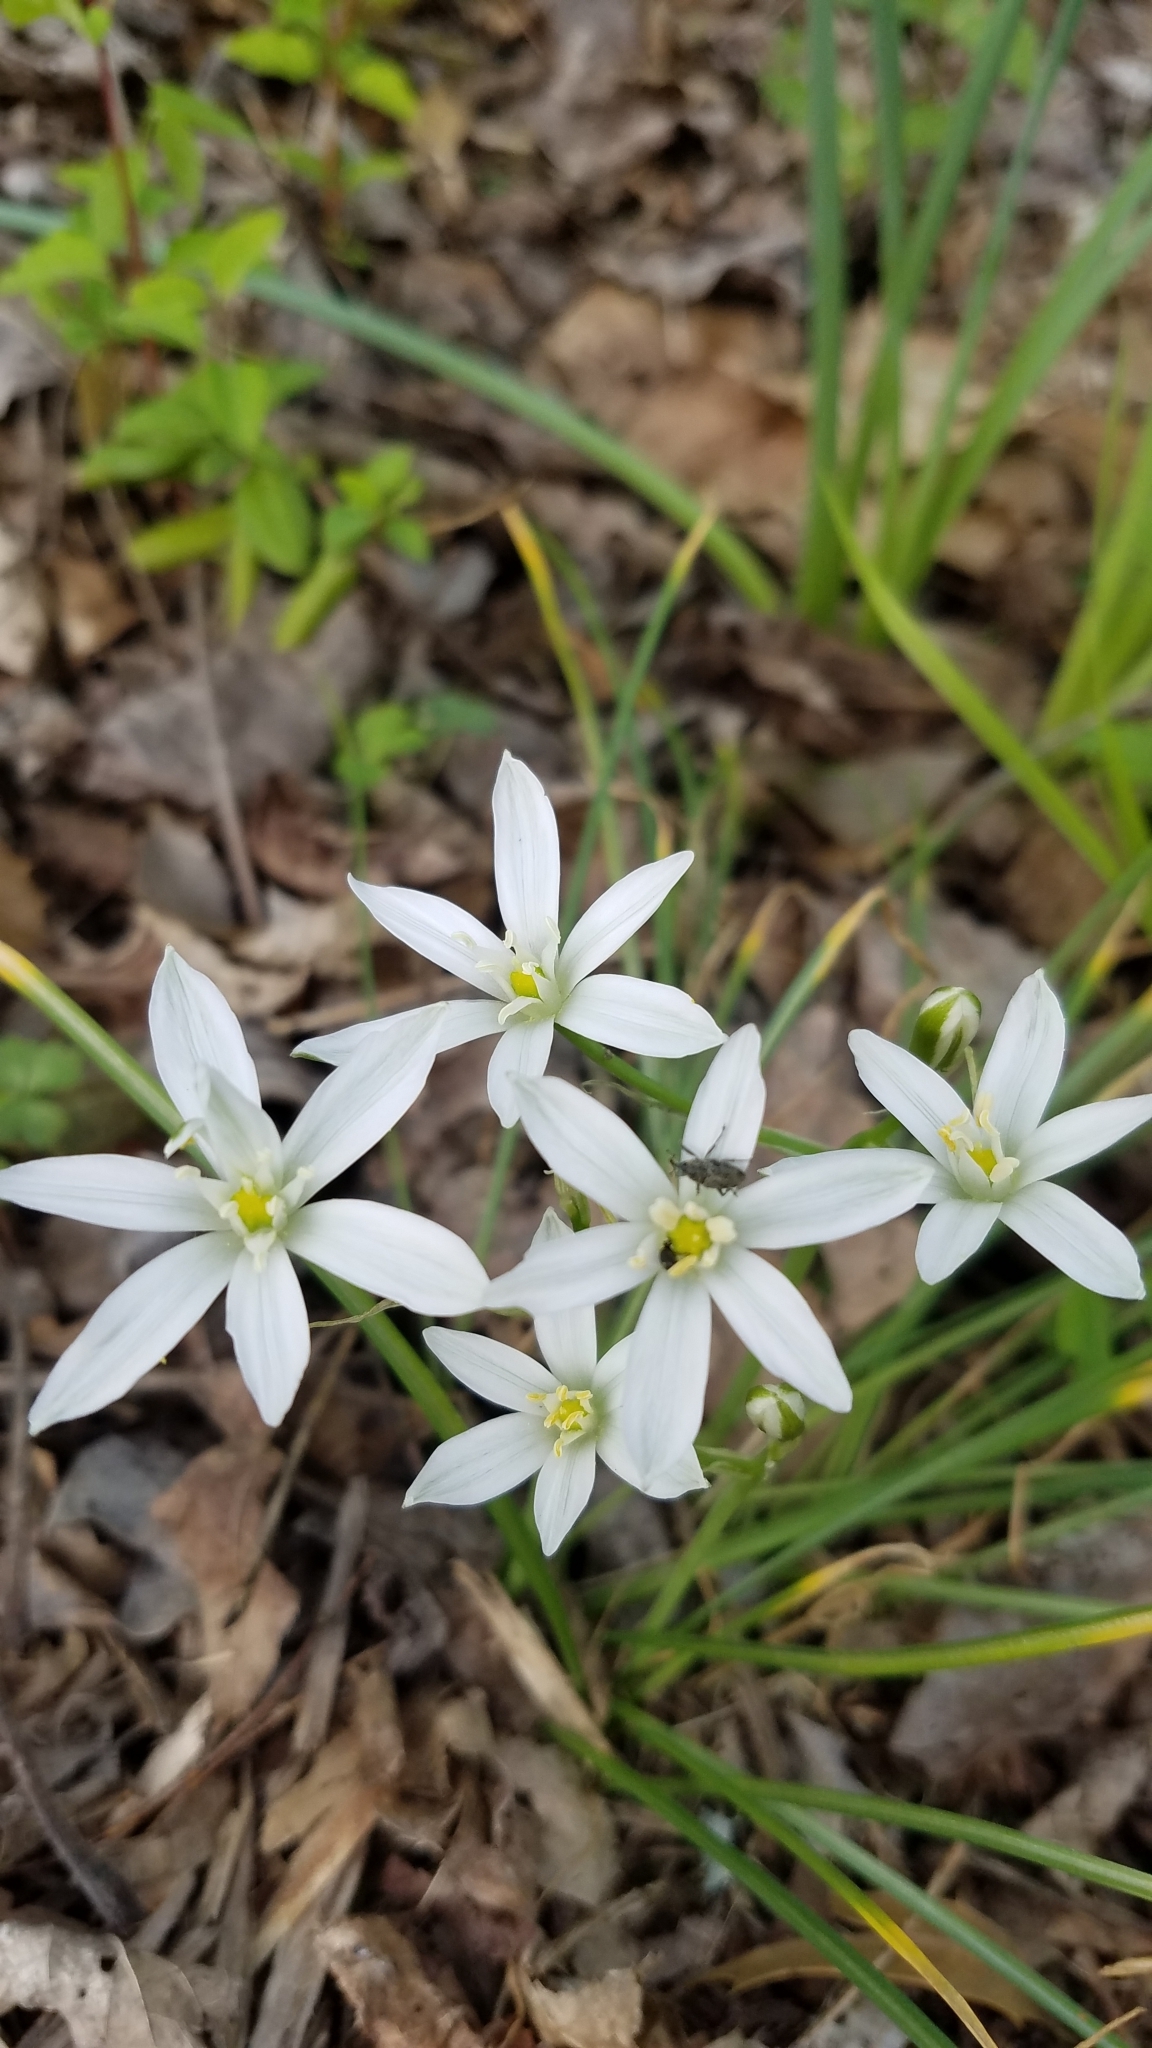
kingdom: Plantae
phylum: Tracheophyta
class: Liliopsida
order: Asparagales
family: Asparagaceae
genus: Ornithogalum
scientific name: Ornithogalum umbellatum
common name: Garden star-of-bethlehem
